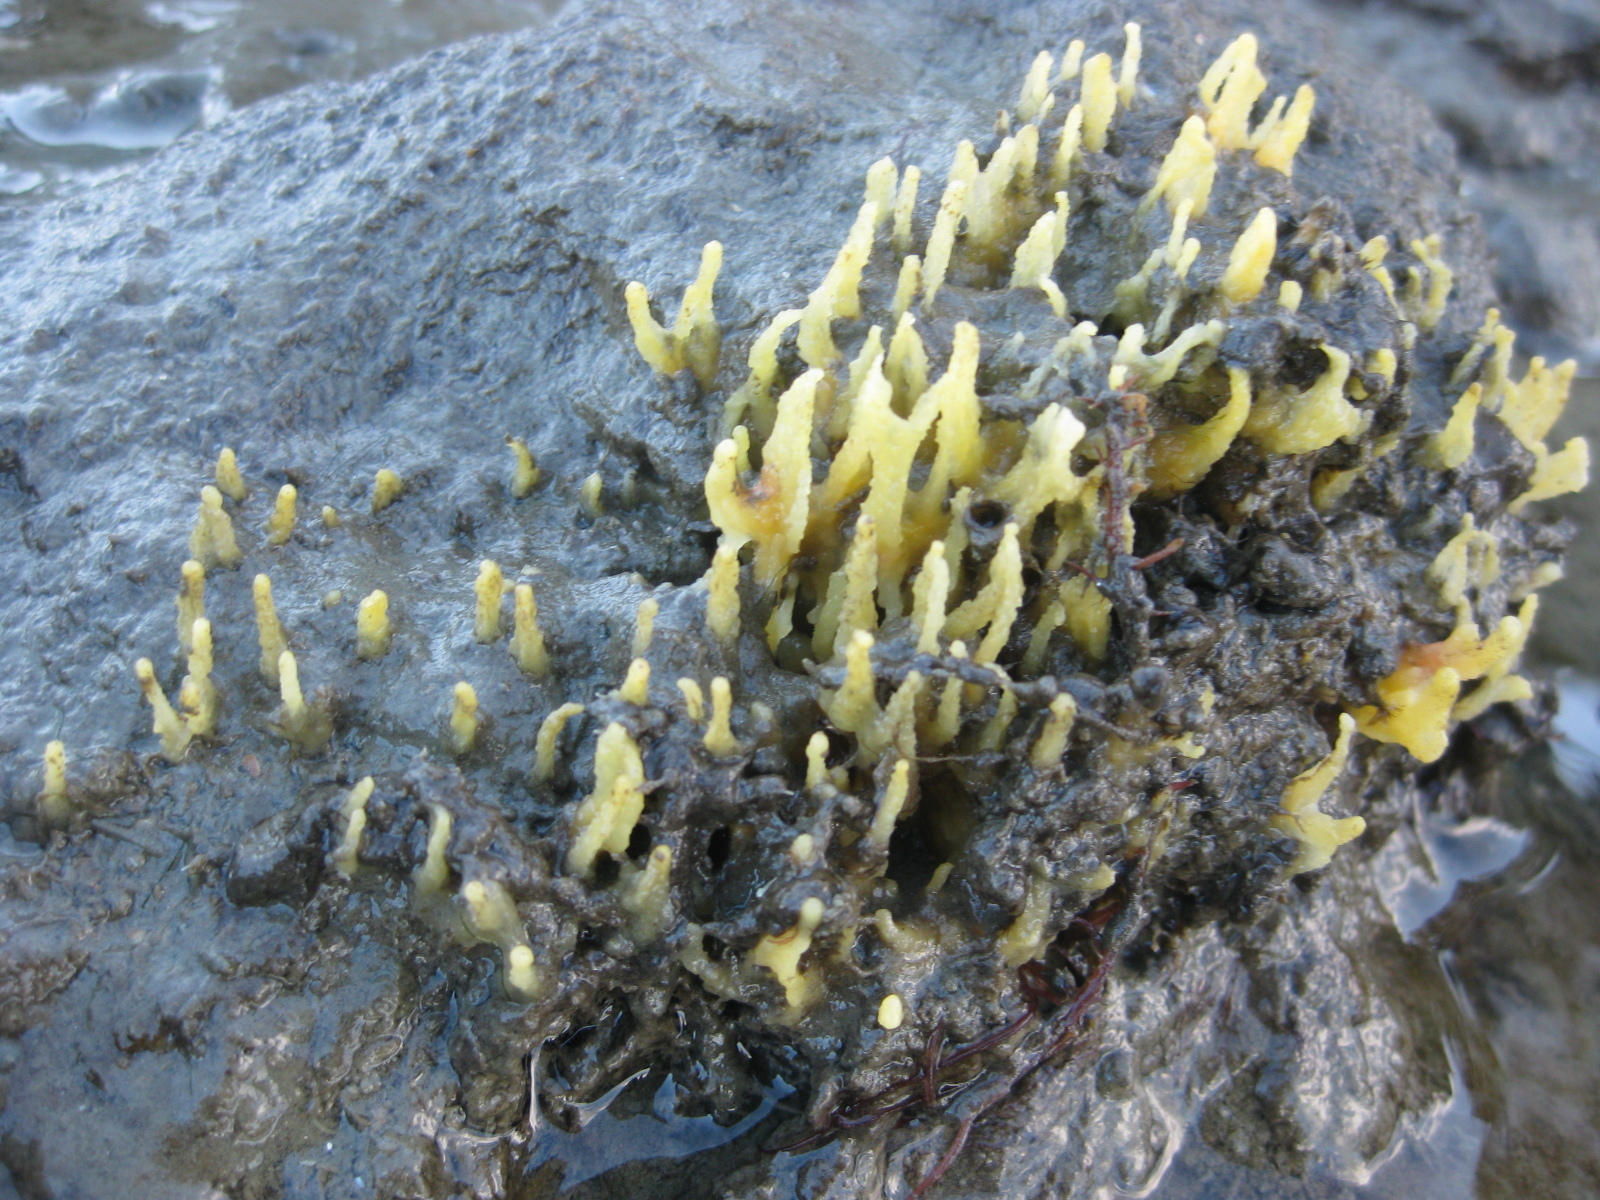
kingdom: Animalia
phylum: Porifera
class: Demospongiae
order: Suberitida
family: Halichondriidae
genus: Ciocalypta
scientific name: Ciocalypta polymastia
